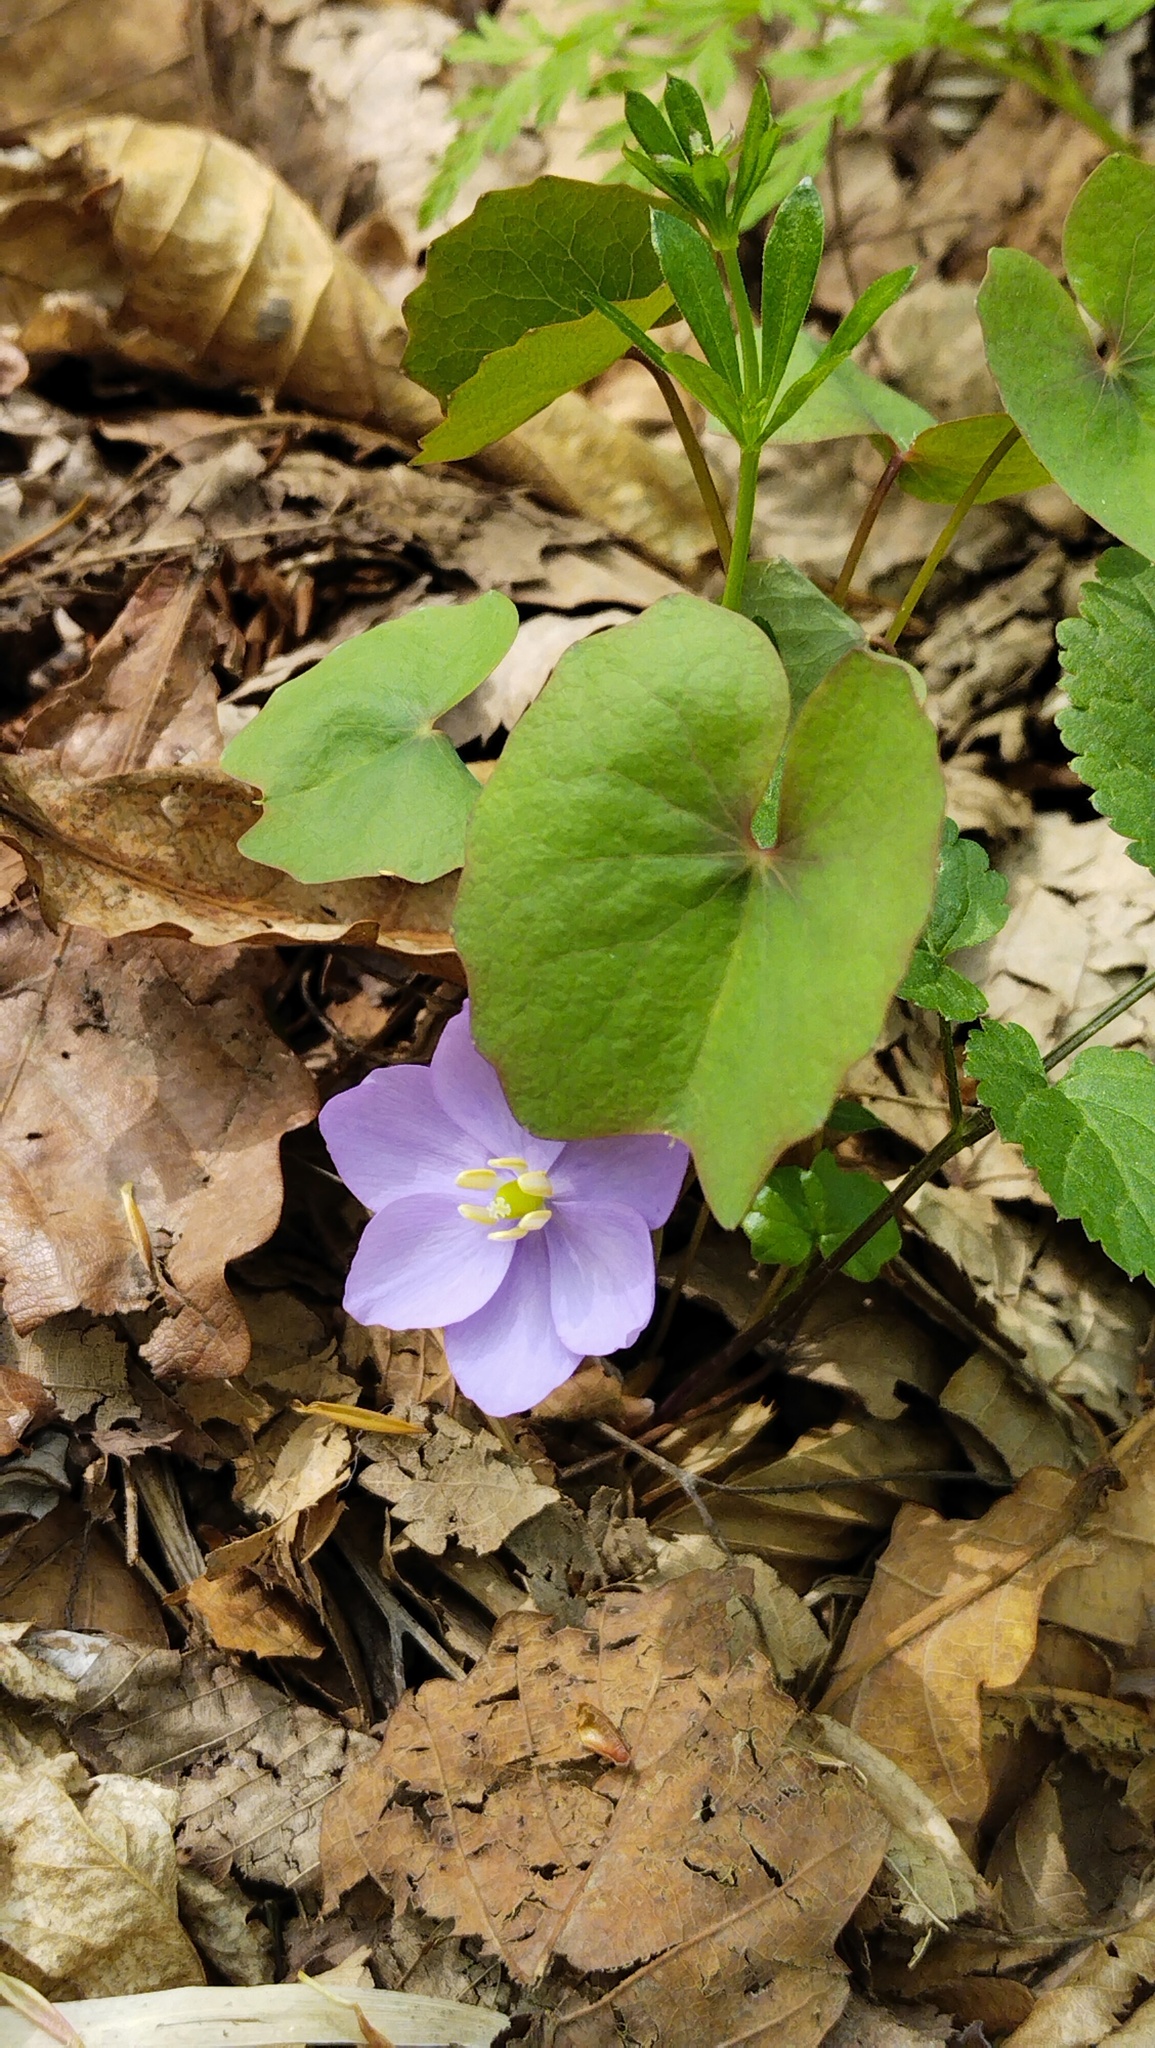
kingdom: Plantae
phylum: Tracheophyta
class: Magnoliopsida
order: Ranunculales
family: Berberidaceae
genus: Plagiorhegma
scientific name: Plagiorhegma dubium
